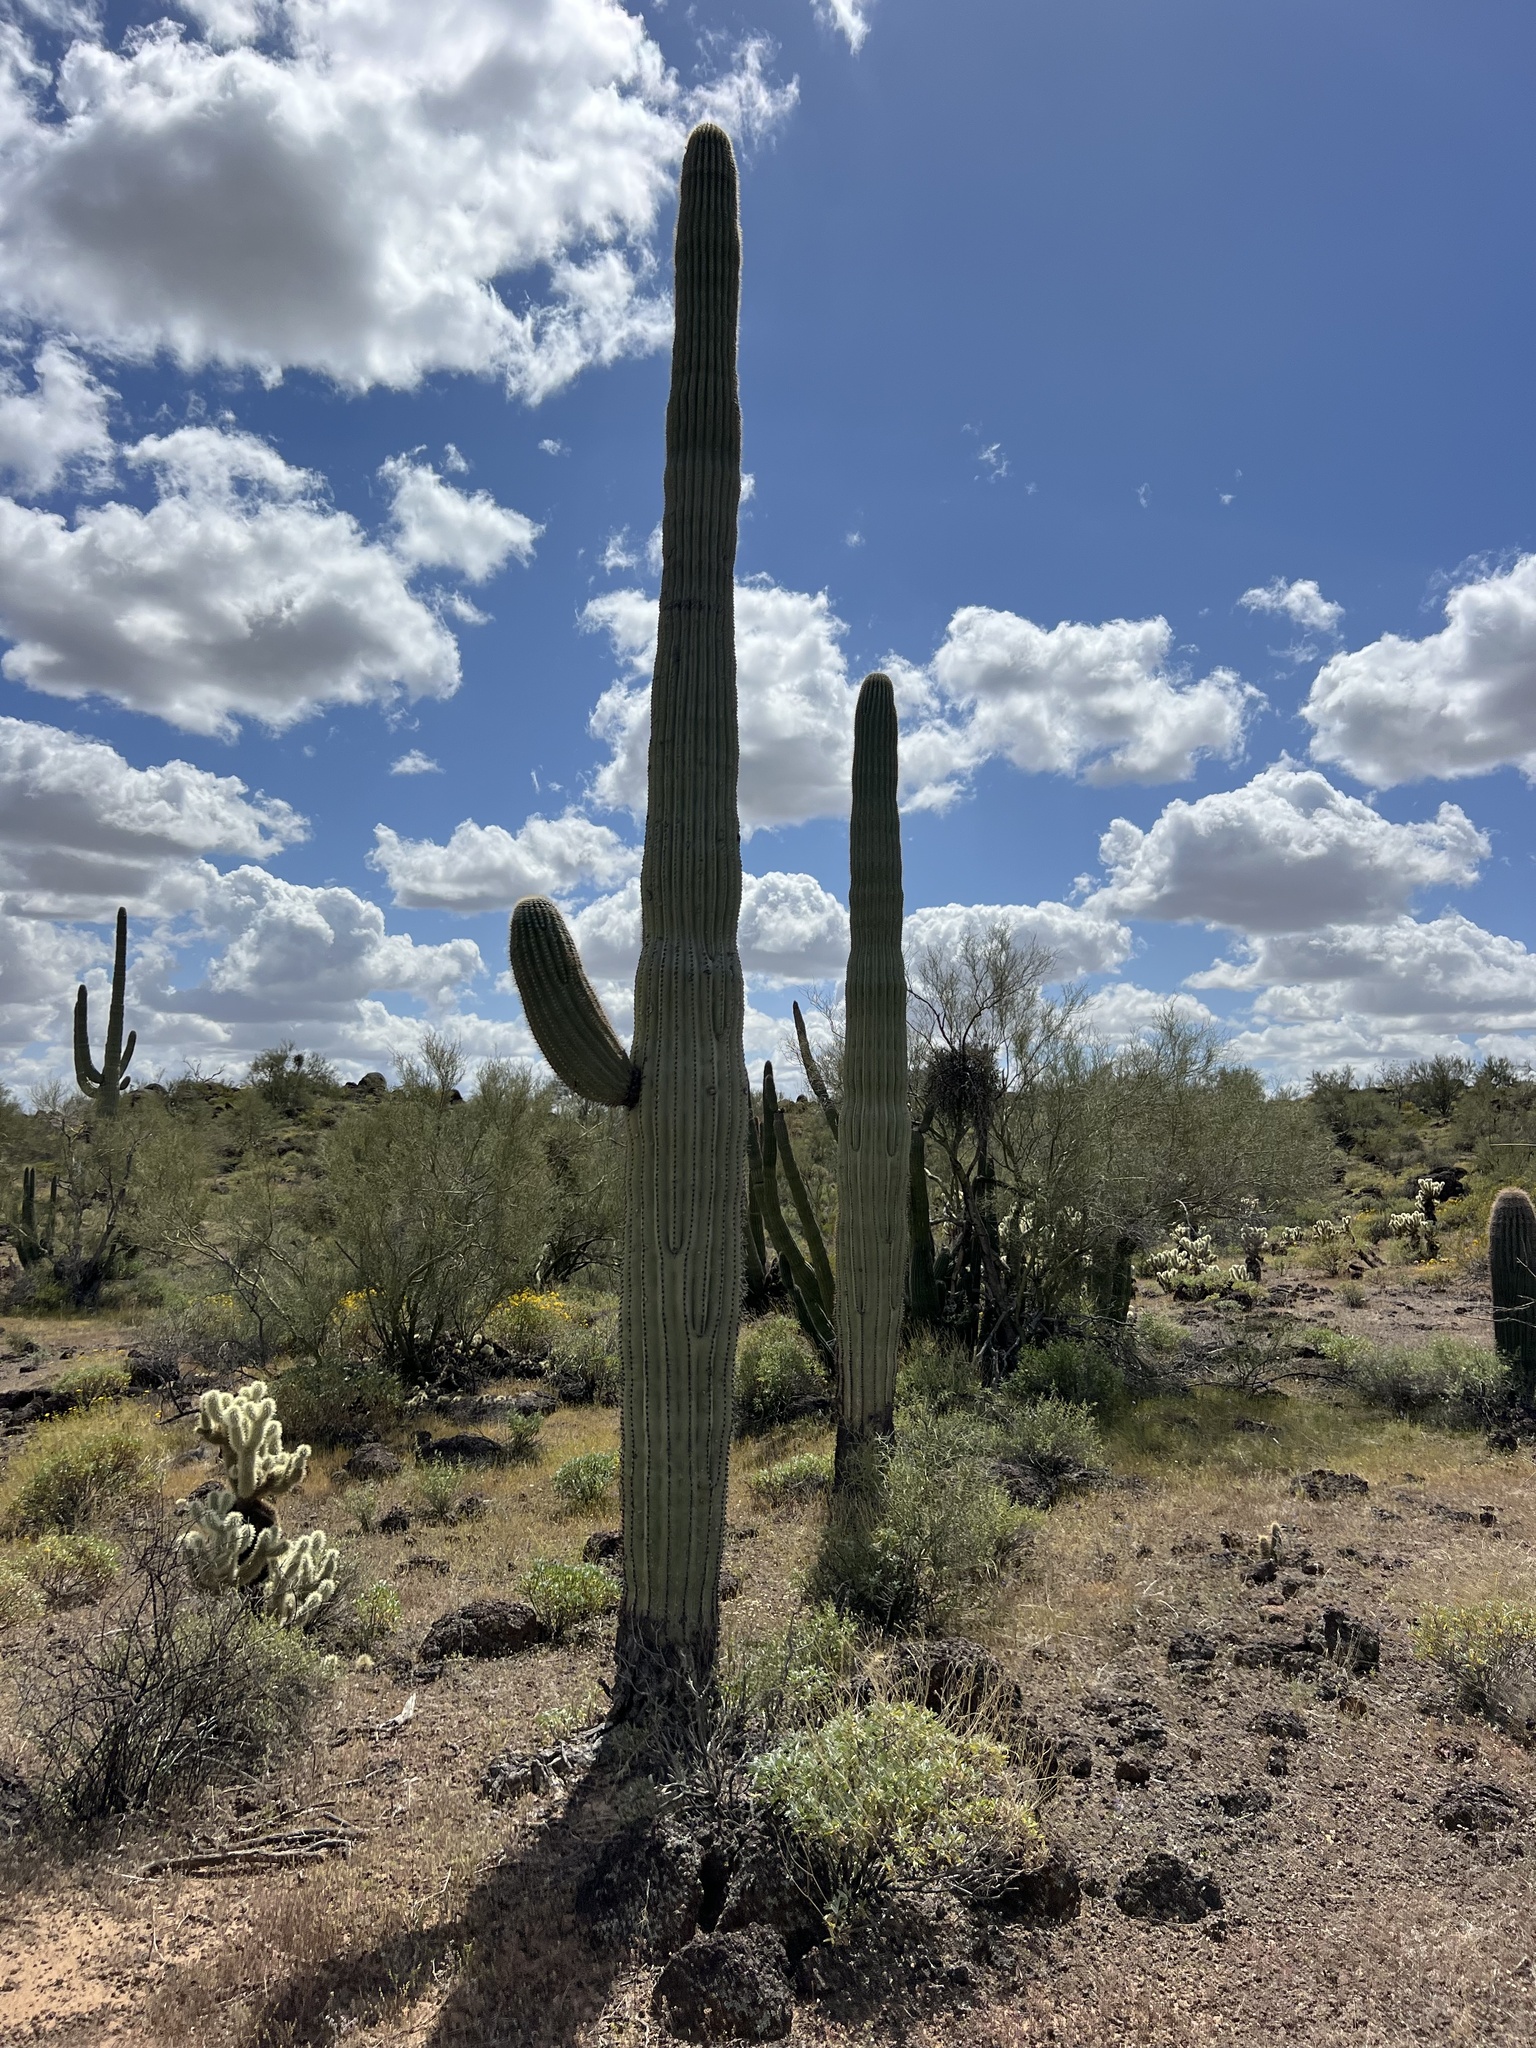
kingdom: Plantae
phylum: Tracheophyta
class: Magnoliopsida
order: Caryophyllales
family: Cactaceae
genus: Carnegiea
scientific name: Carnegiea gigantea
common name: Saguaro
